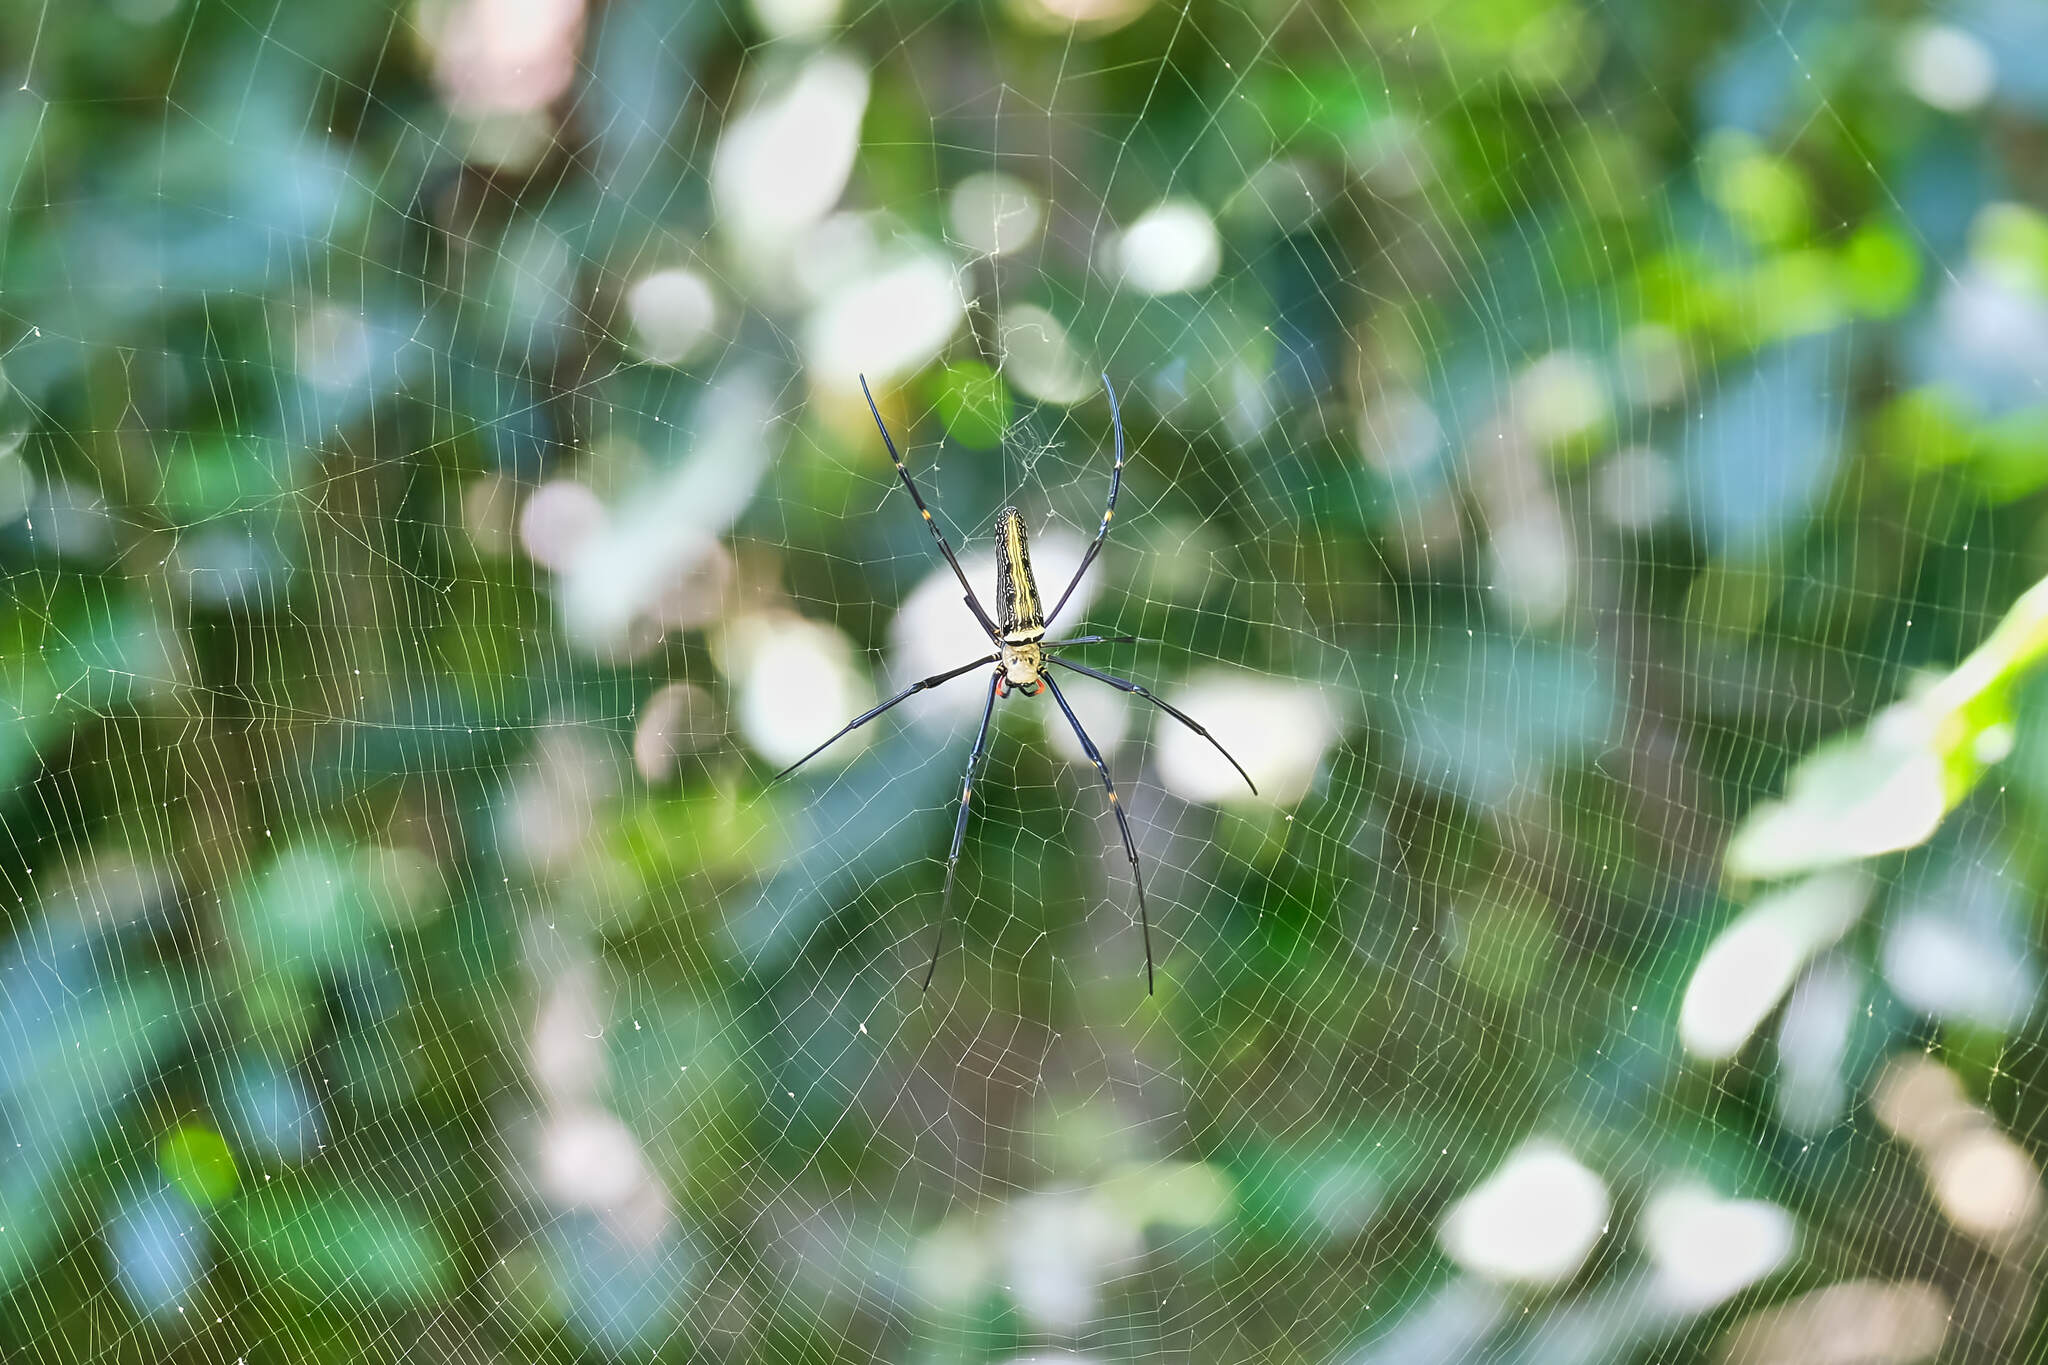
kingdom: Animalia
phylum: Arthropoda
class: Arachnida
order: Araneae
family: Araneidae
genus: Nephila
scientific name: Nephila pilipes
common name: Giant golden orb weaver
